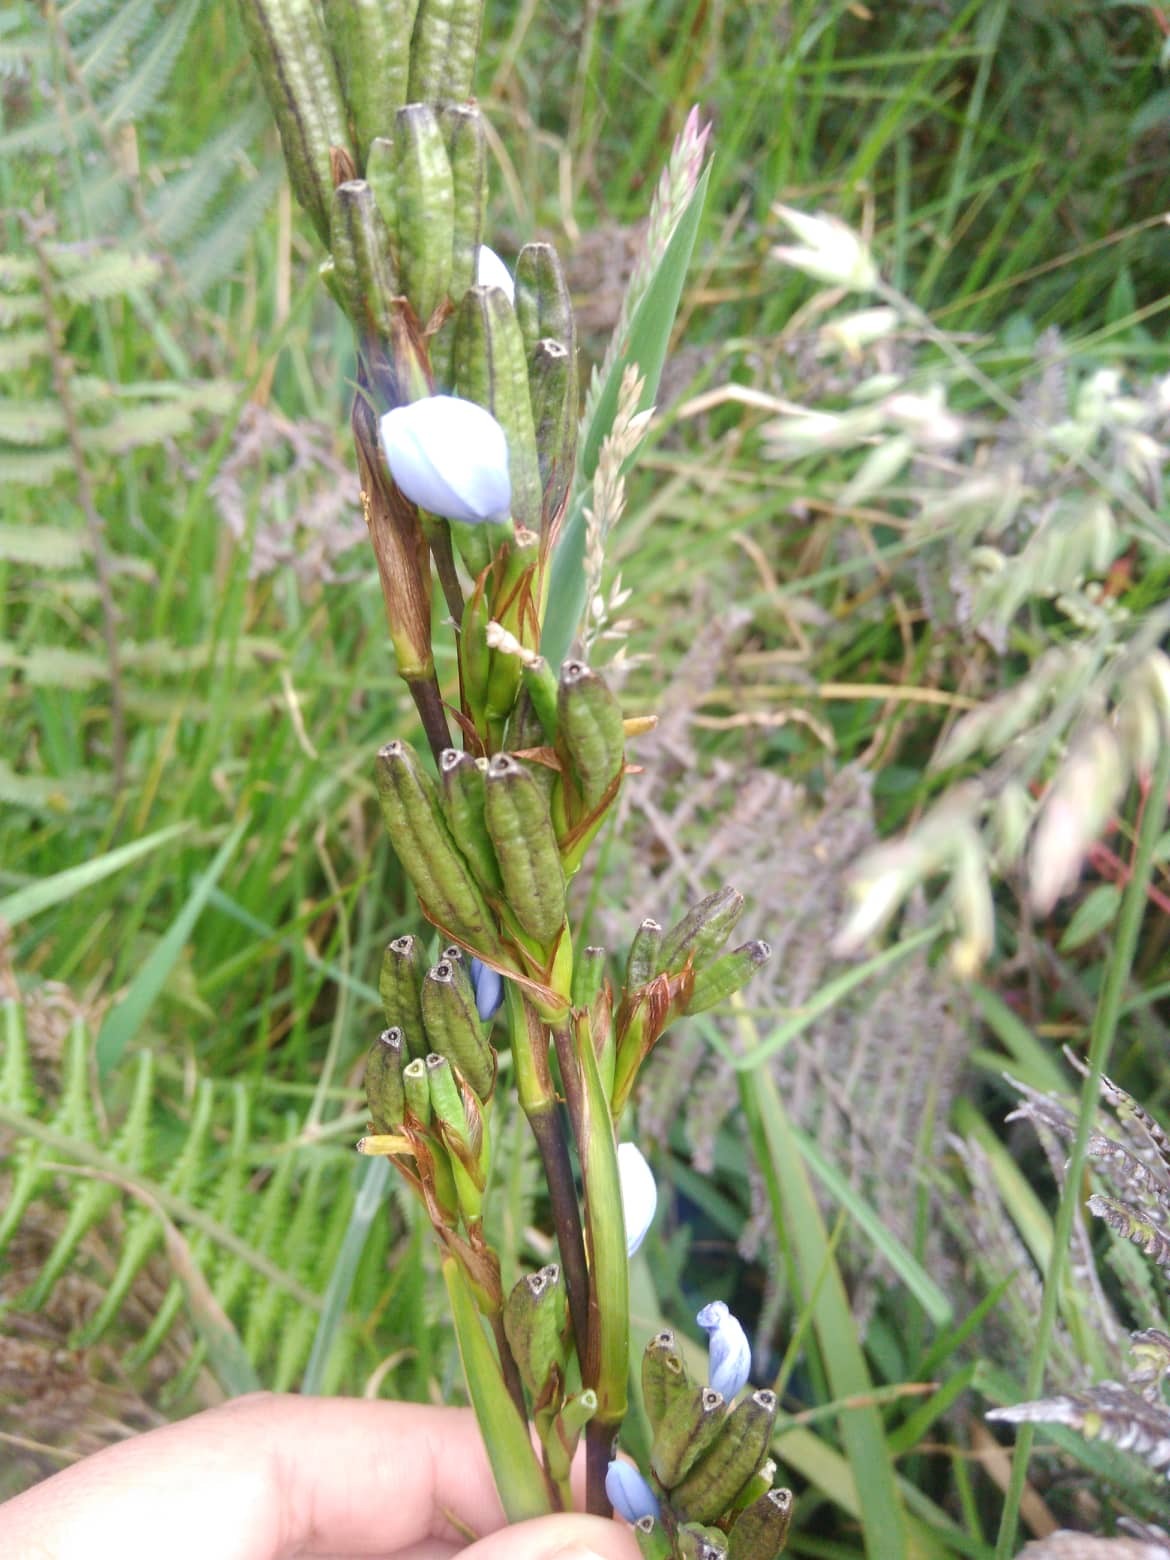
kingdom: Plantae
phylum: Tracheophyta
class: Liliopsida
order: Asparagales
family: Iridaceae
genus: Orthrosanthus
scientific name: Orthrosanthus chimboracensis
